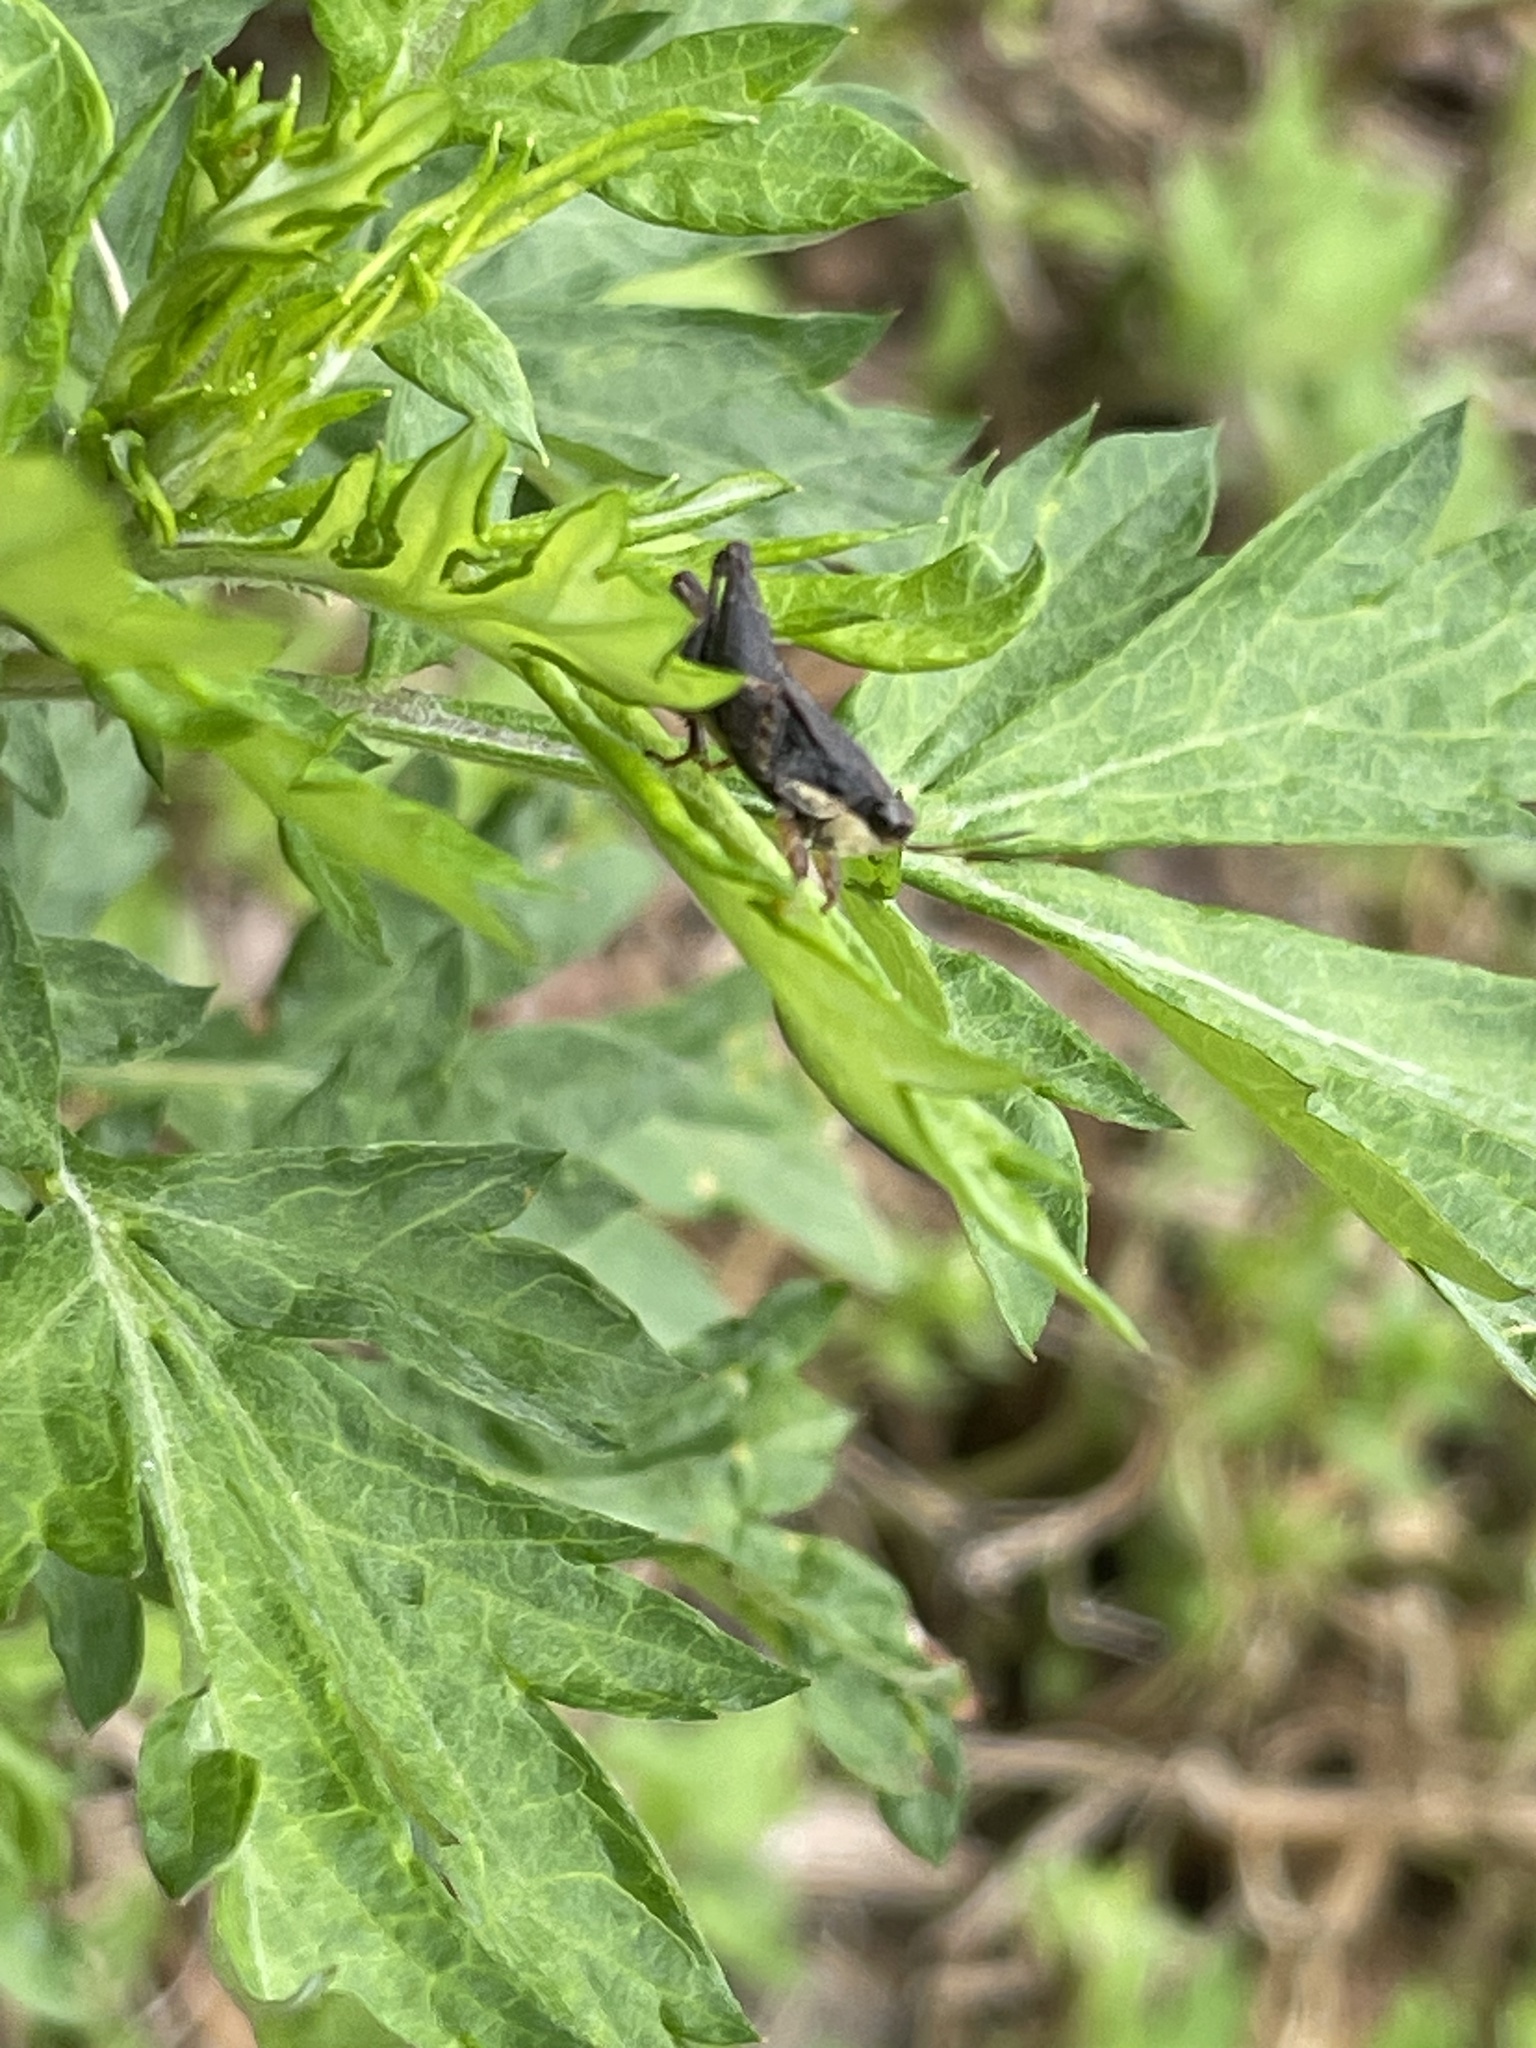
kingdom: Animalia
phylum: Arthropoda
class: Insecta
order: Orthoptera
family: Tetrigidae
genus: Tettigidea
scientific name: Tettigidea laterale
